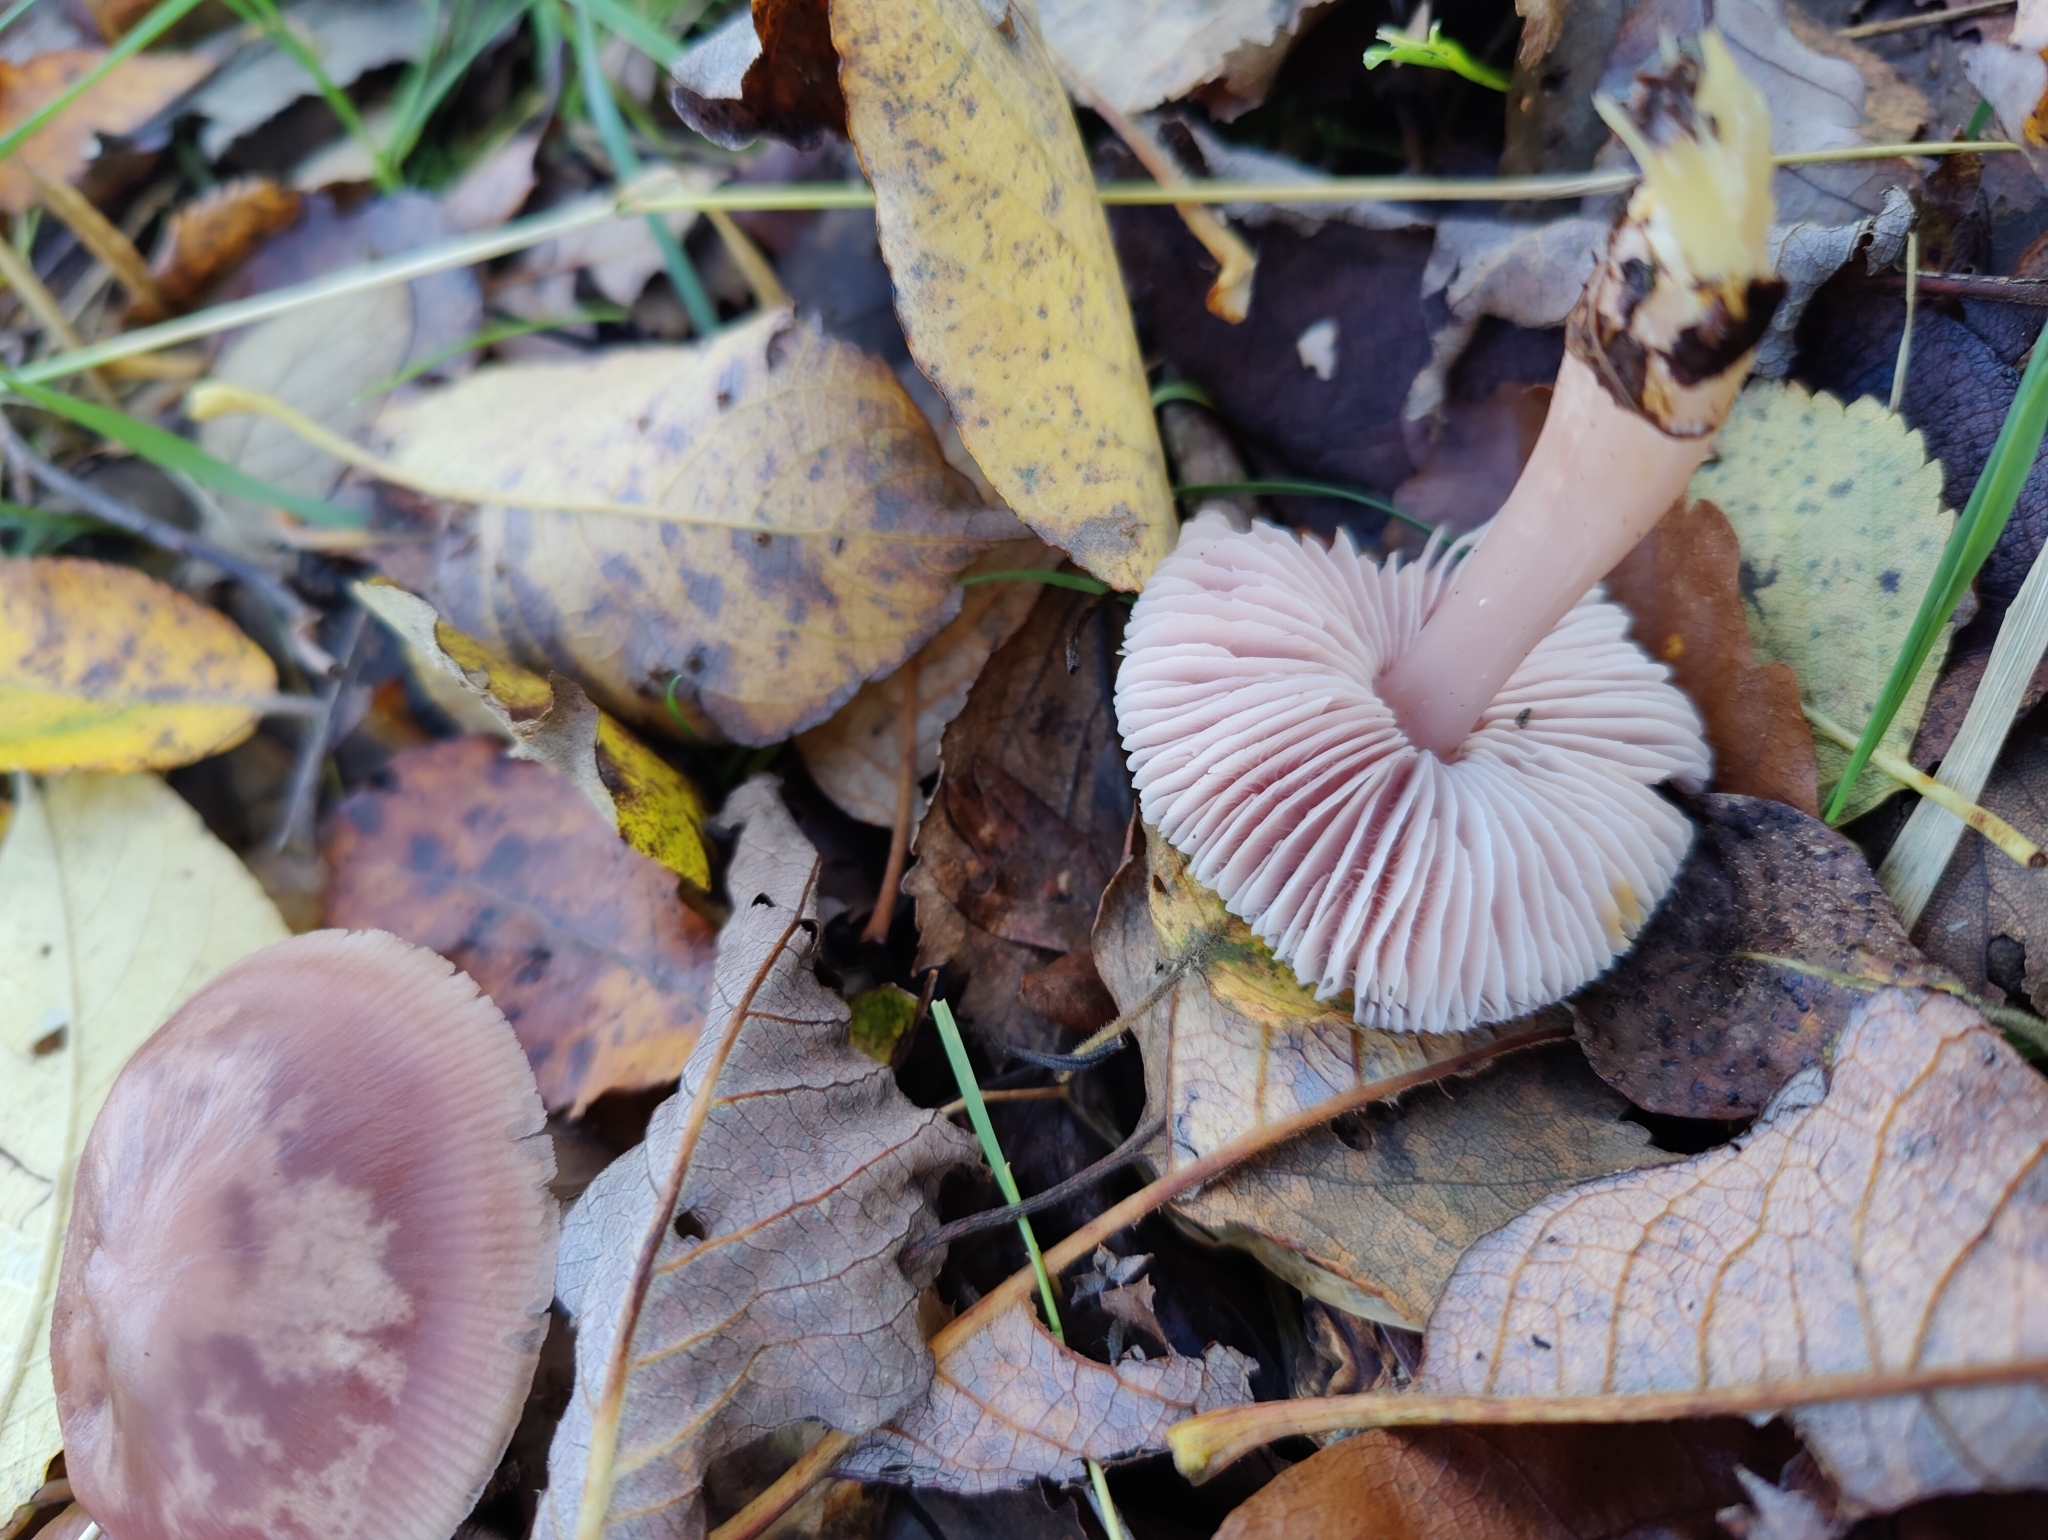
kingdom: Fungi
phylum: Basidiomycota
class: Agaricomycetes
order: Agaricales
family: Mycenaceae
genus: Mycena
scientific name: Mycena rosea
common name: Rosy bonnet
